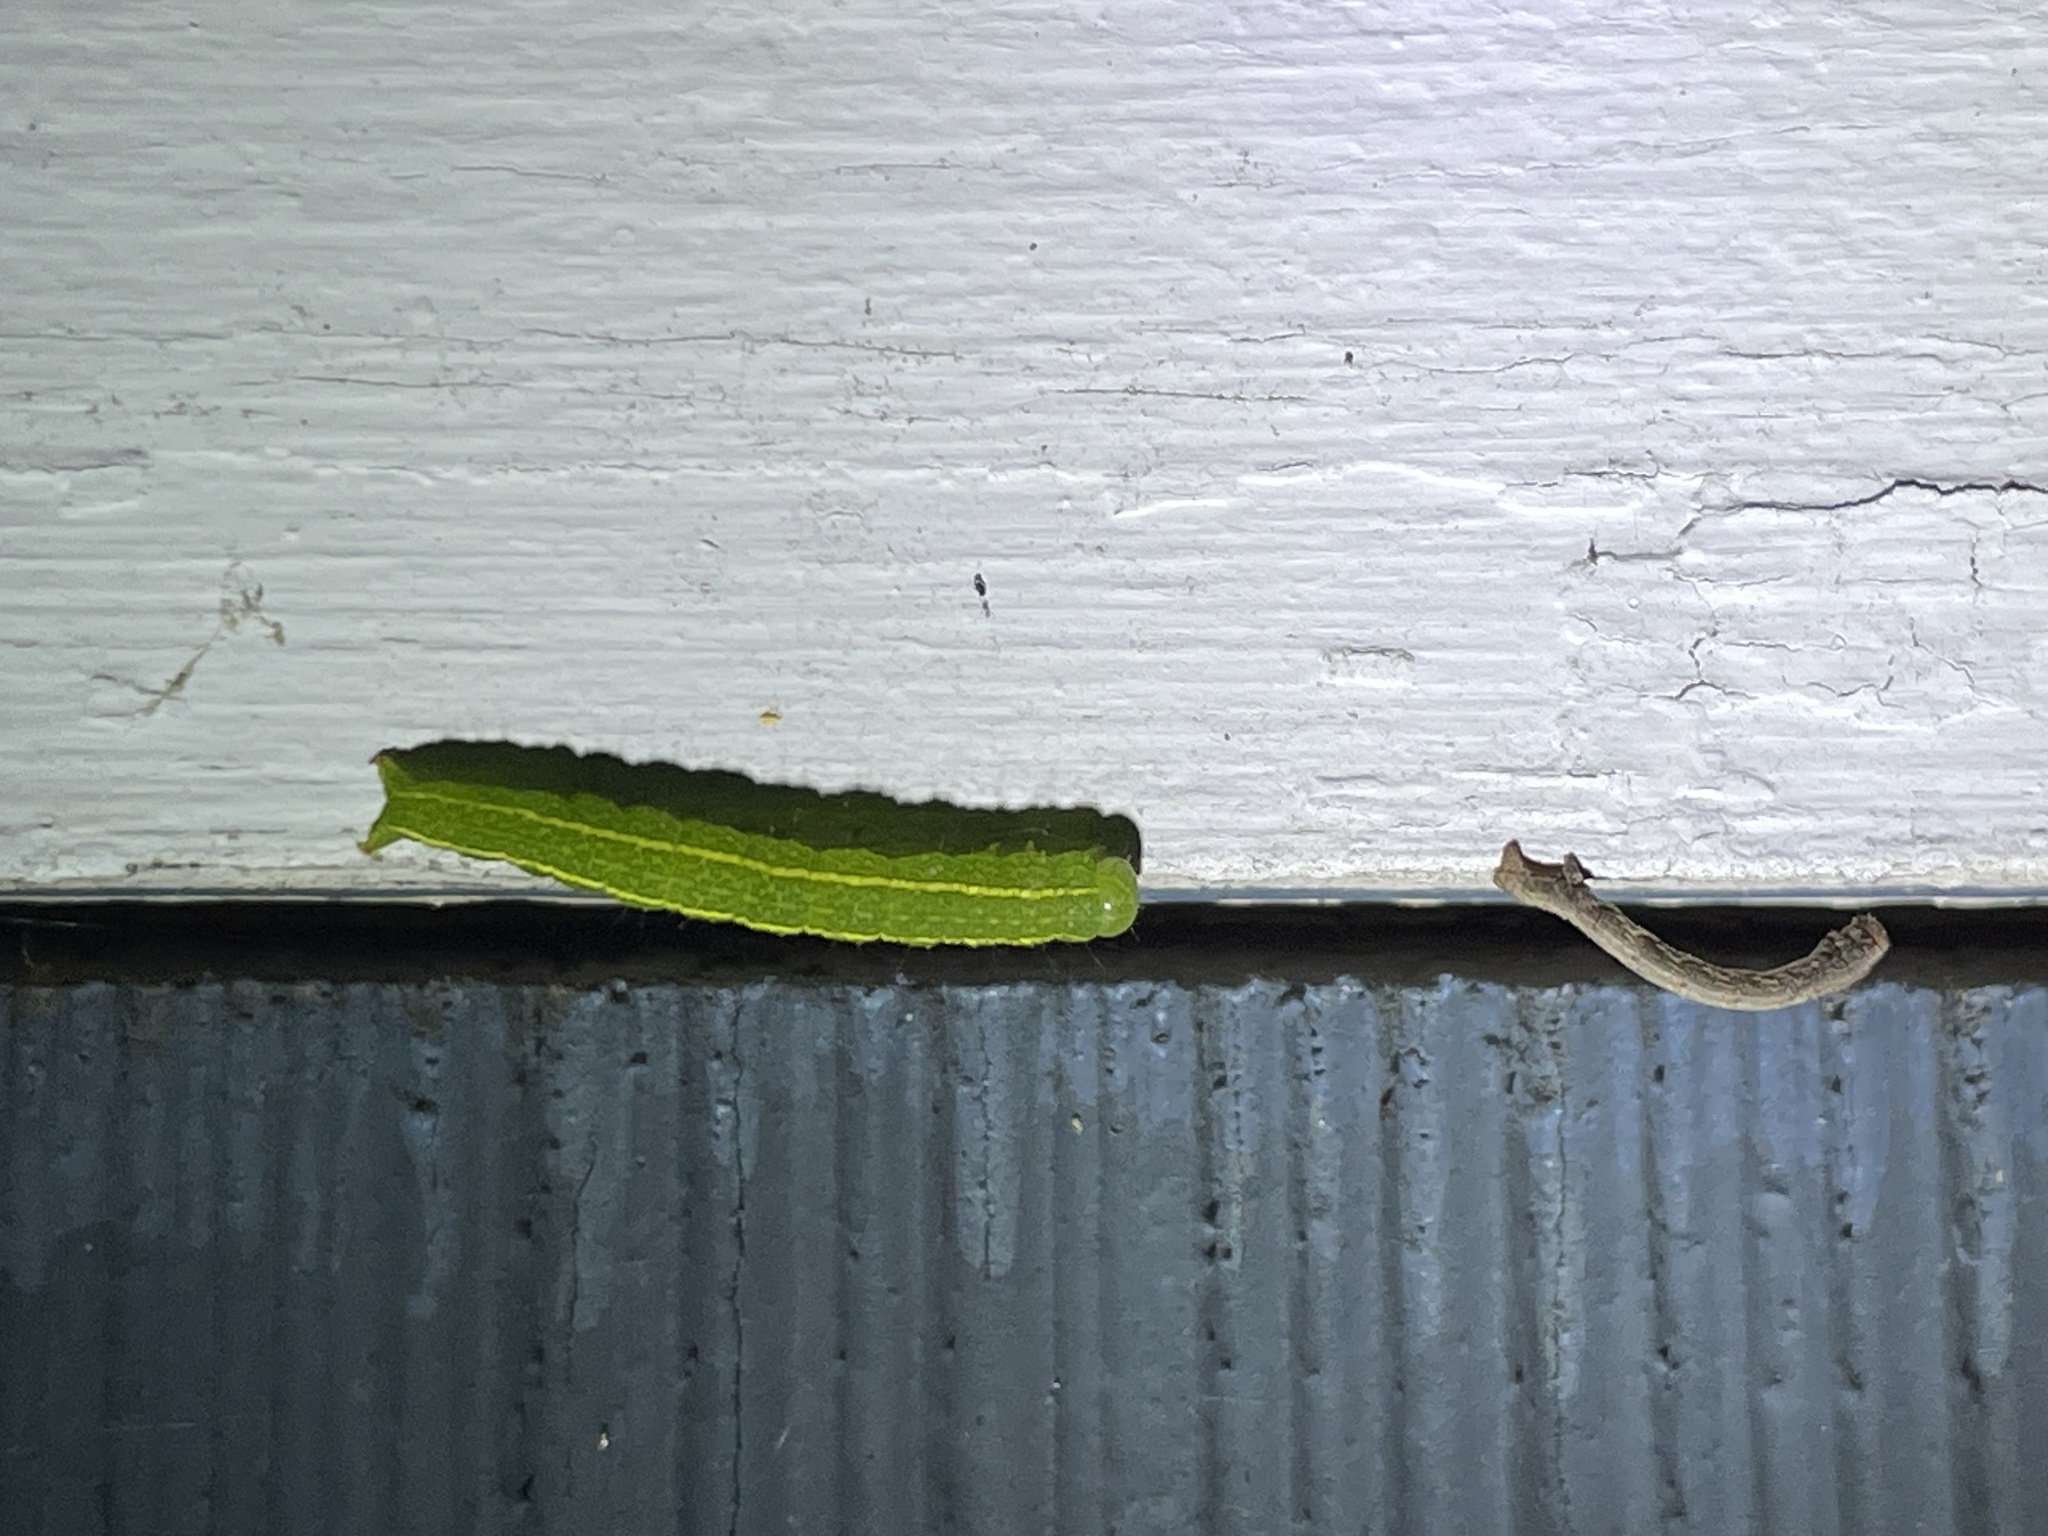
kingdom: Animalia
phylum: Arthropoda
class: Insecta
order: Lepidoptera
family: Erebidae
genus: Panopoda
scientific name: Panopoda rufimargo
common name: Red-lined panopoda moth
